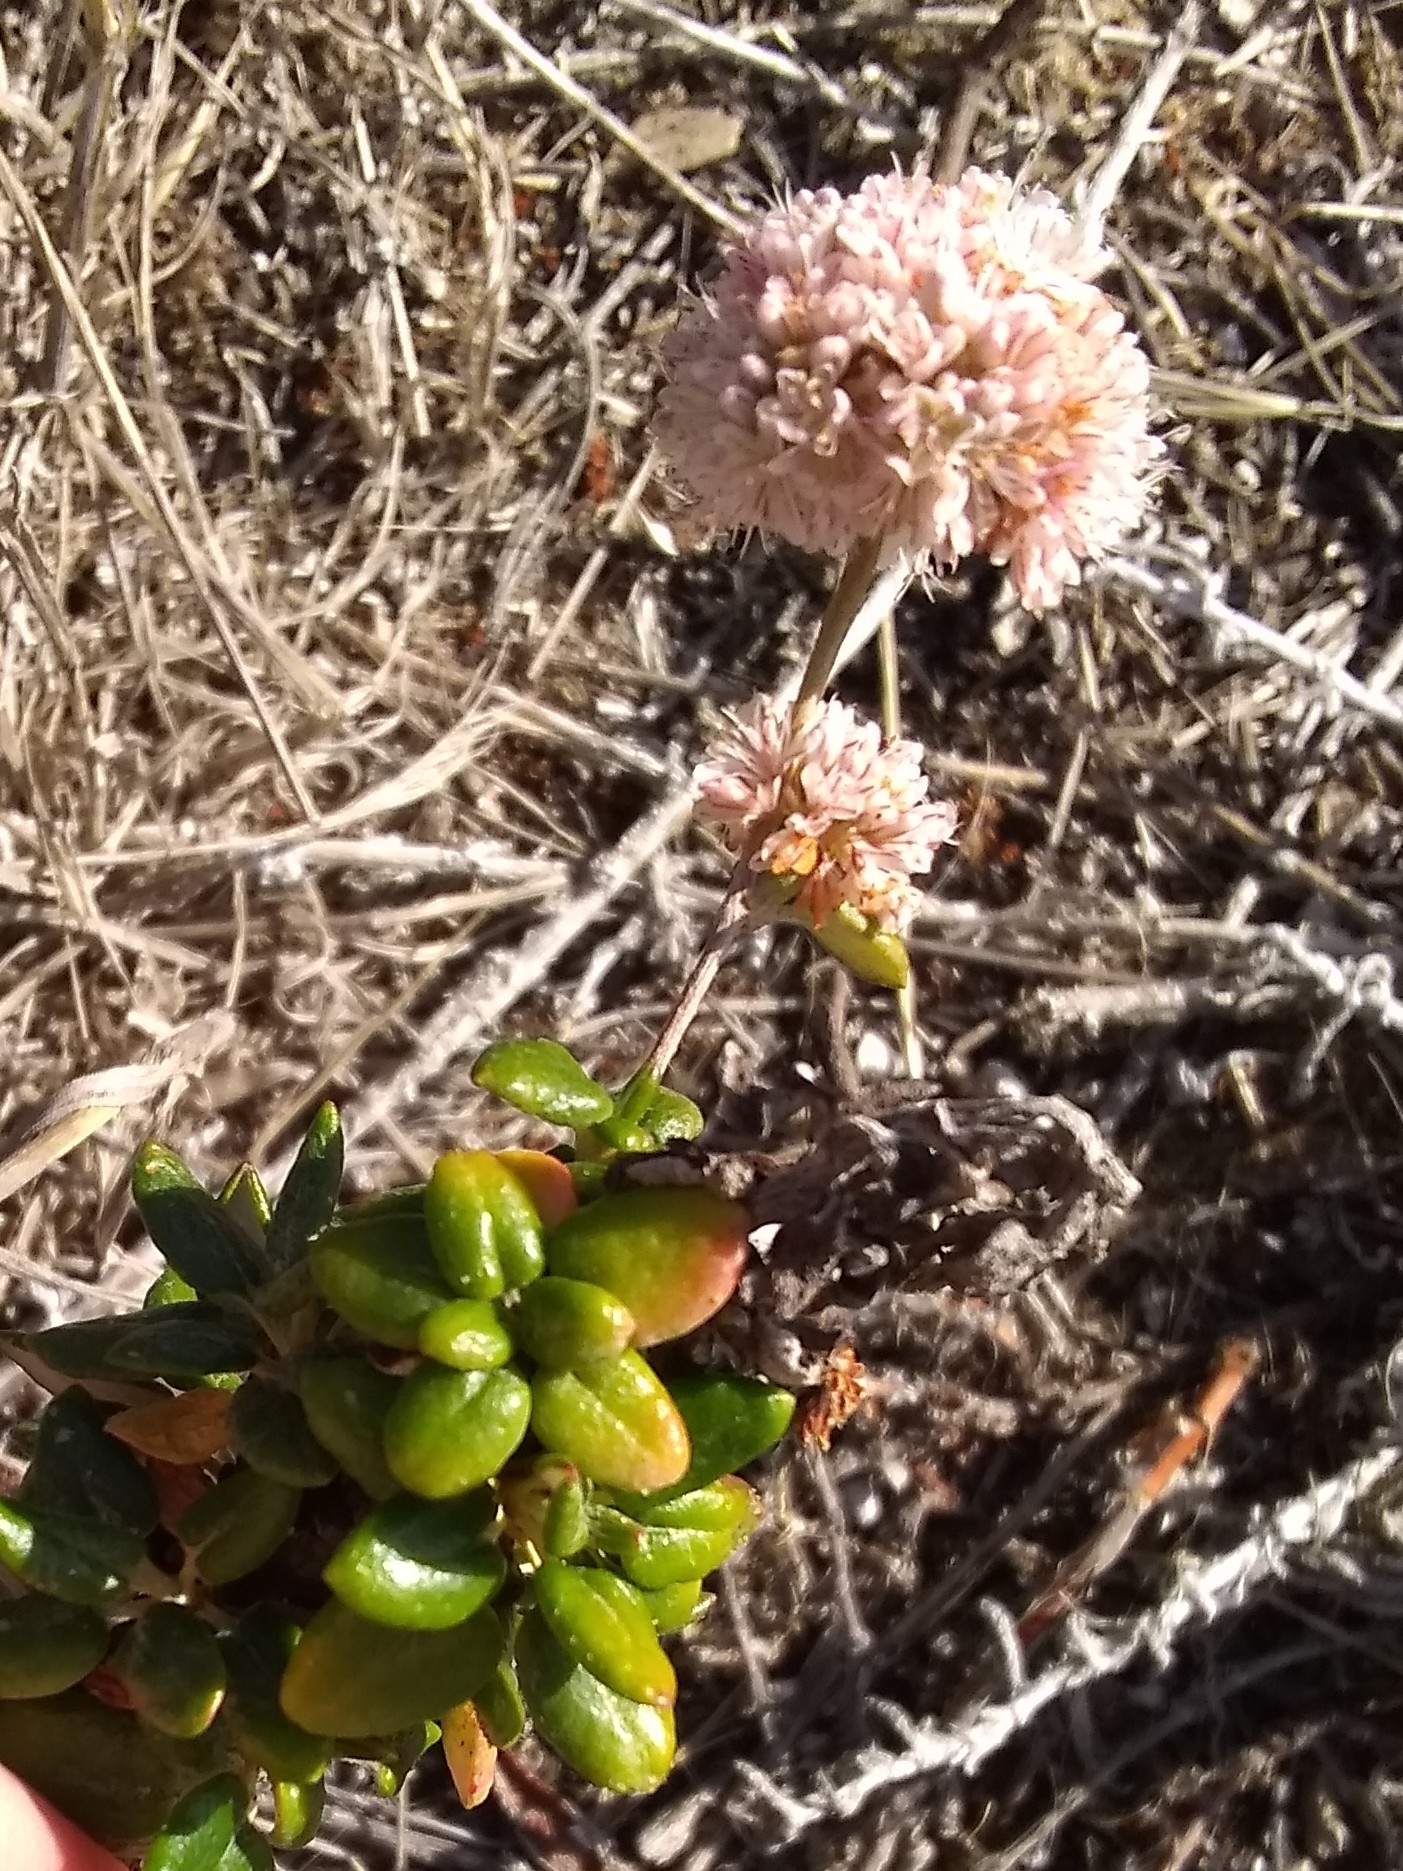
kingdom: Plantae
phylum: Tracheophyta
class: Magnoliopsida
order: Caryophyllales
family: Polygonaceae
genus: Eriogonum
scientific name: Eriogonum parvifolium
